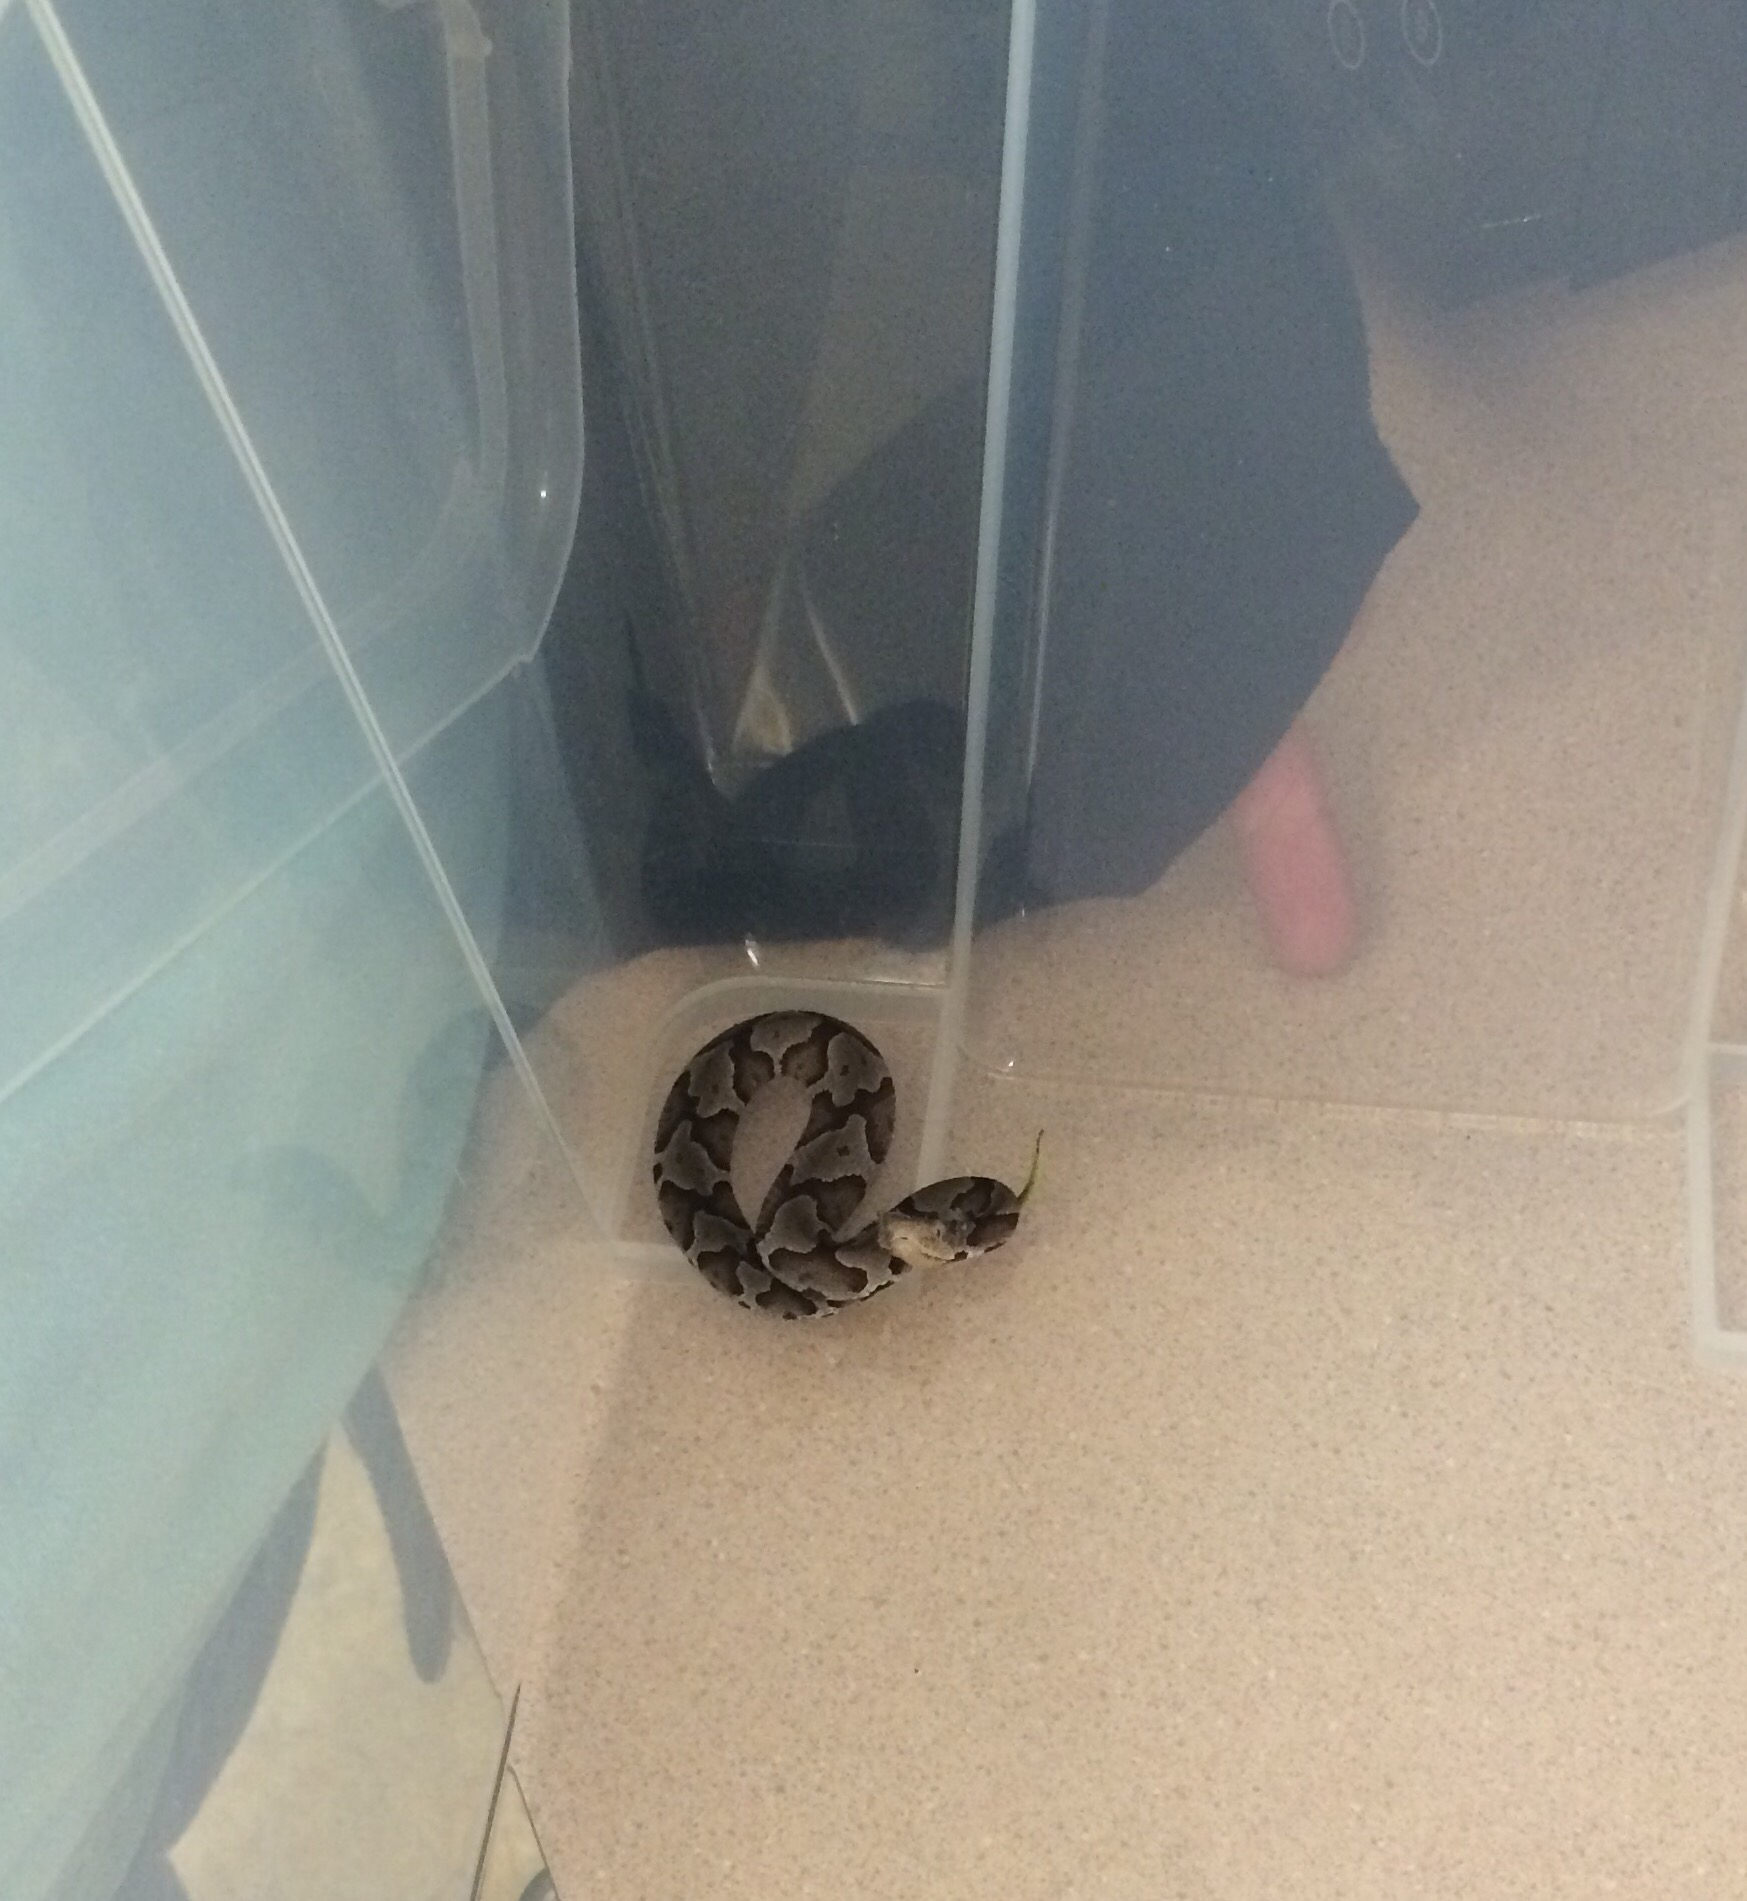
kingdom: Animalia
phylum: Chordata
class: Squamata
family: Viperidae
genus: Agkistrodon
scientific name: Agkistrodon contortrix
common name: Northern copperhead
